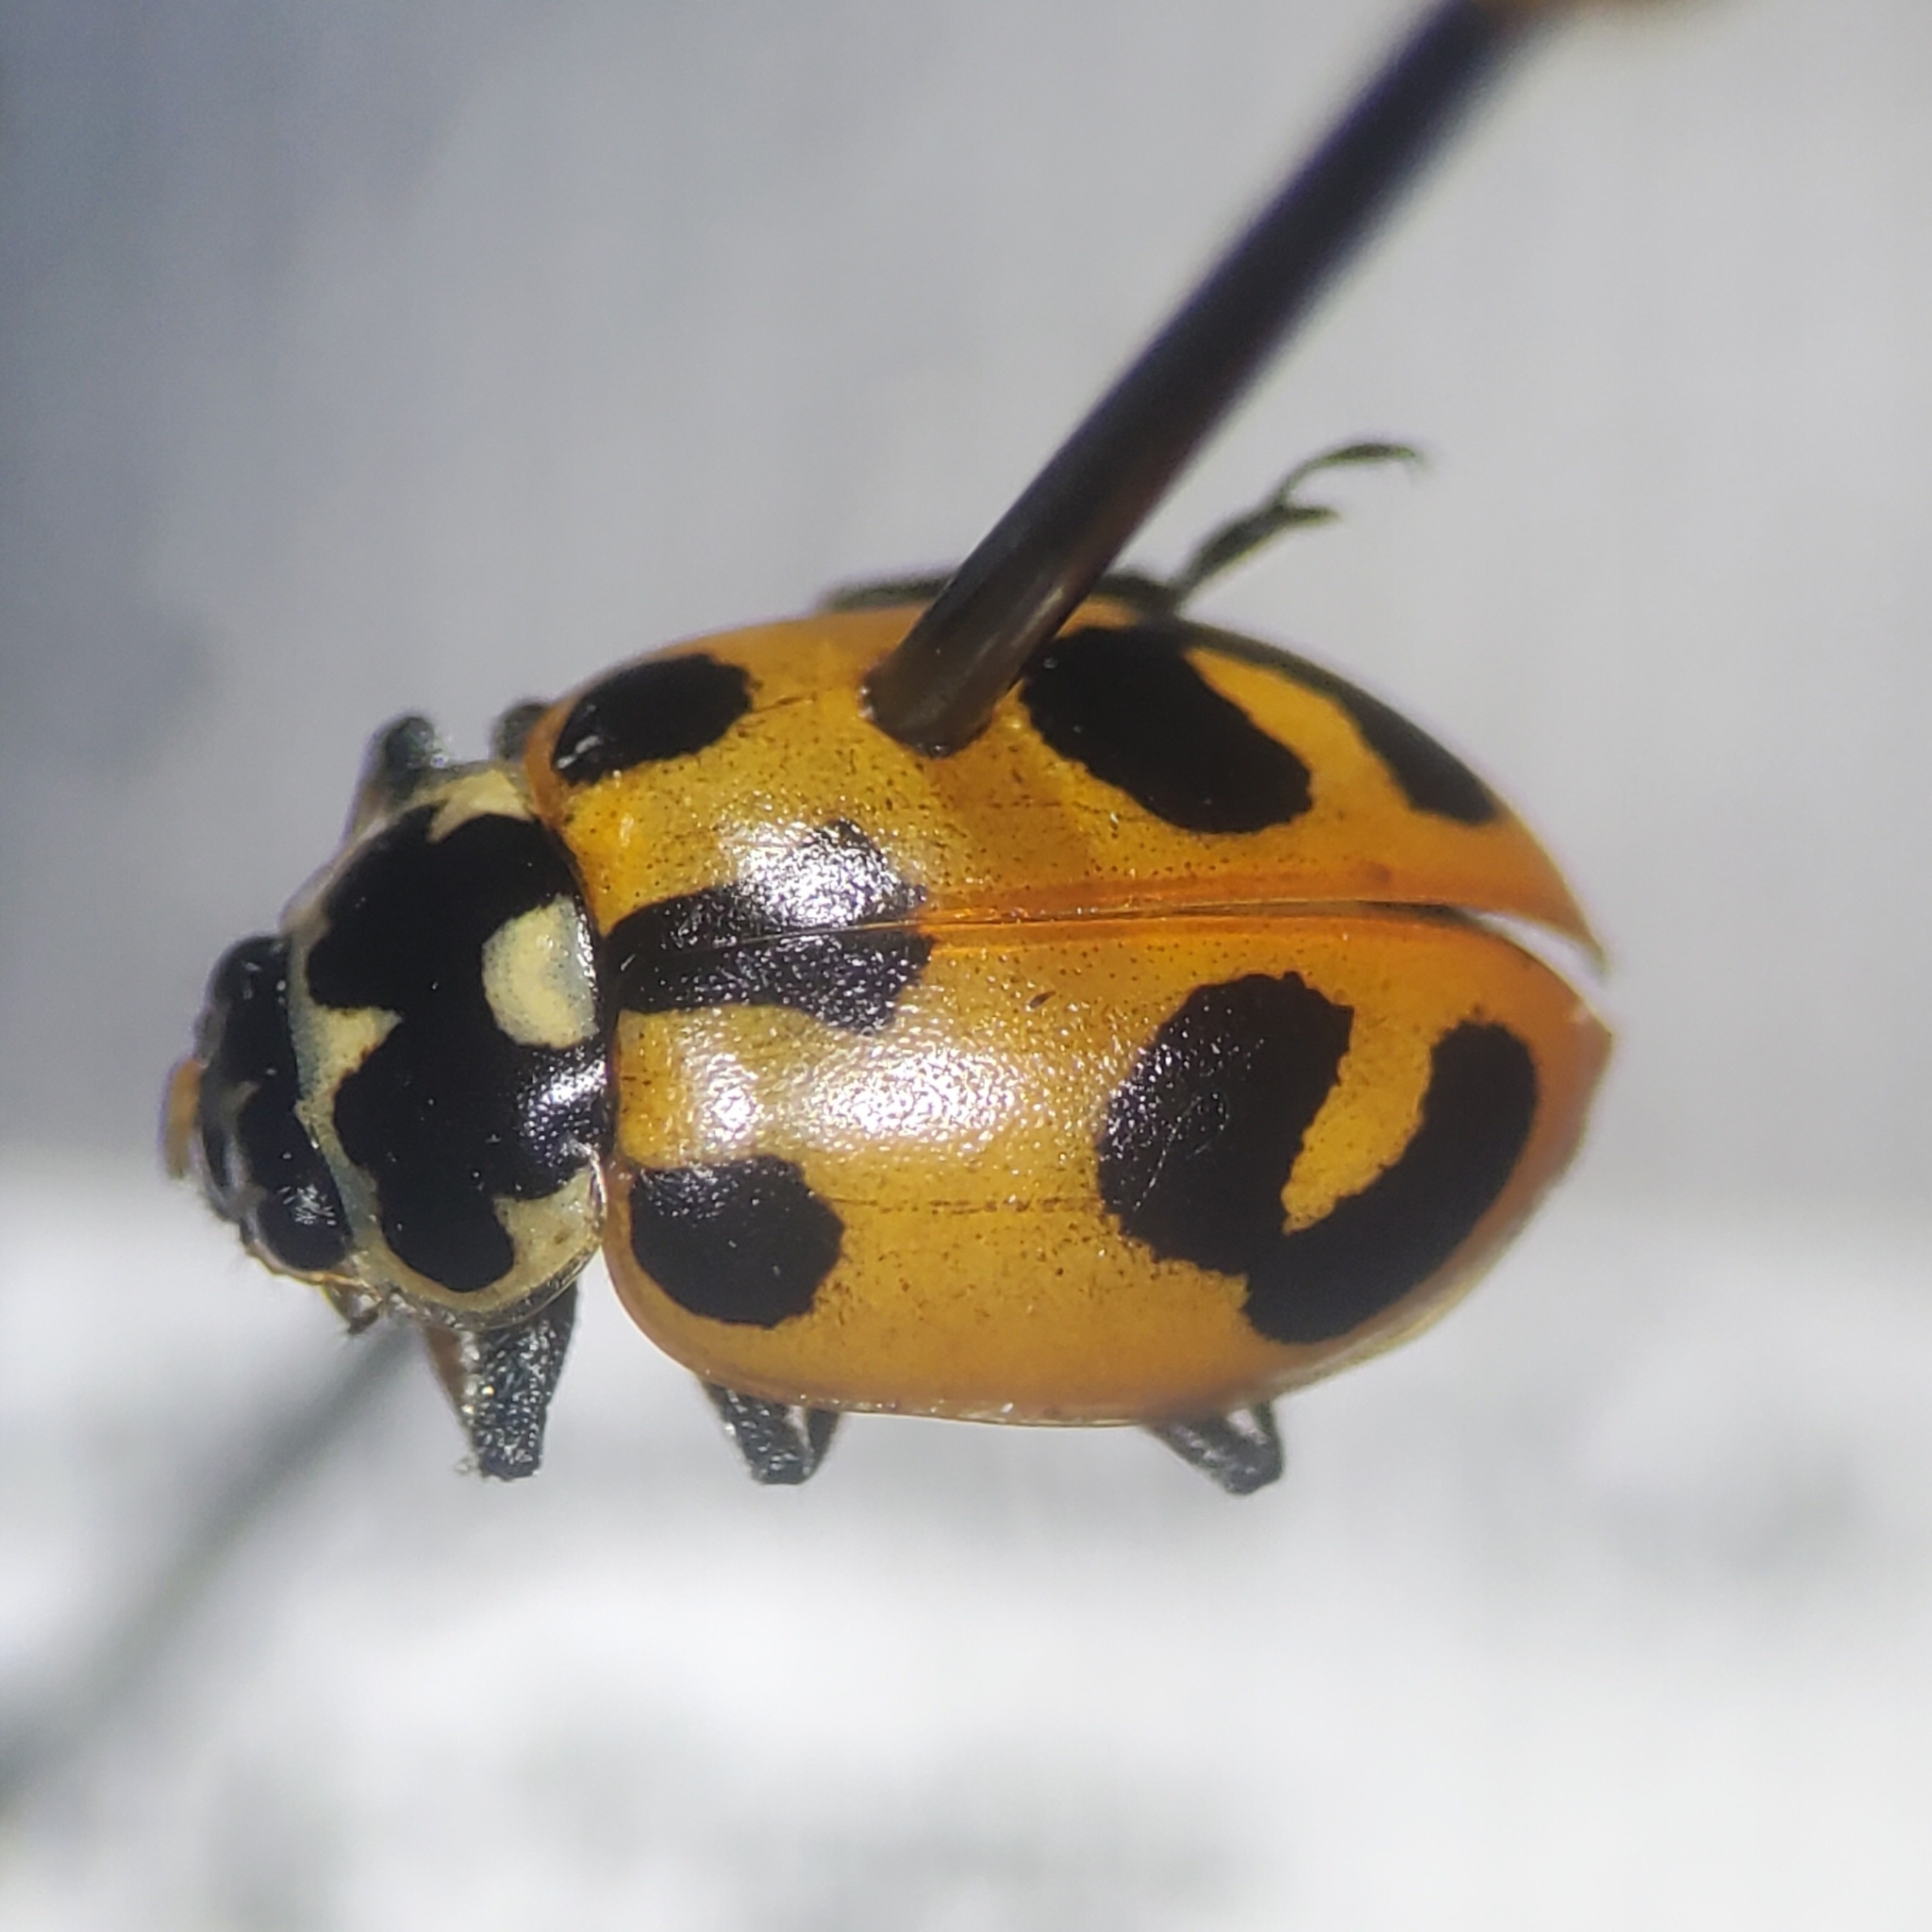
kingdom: Animalia
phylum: Arthropoda
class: Insecta
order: Coleoptera
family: Coccinellidae
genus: Hippodamia
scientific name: Hippodamia parenthesis
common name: Parenthesis lady beetle
